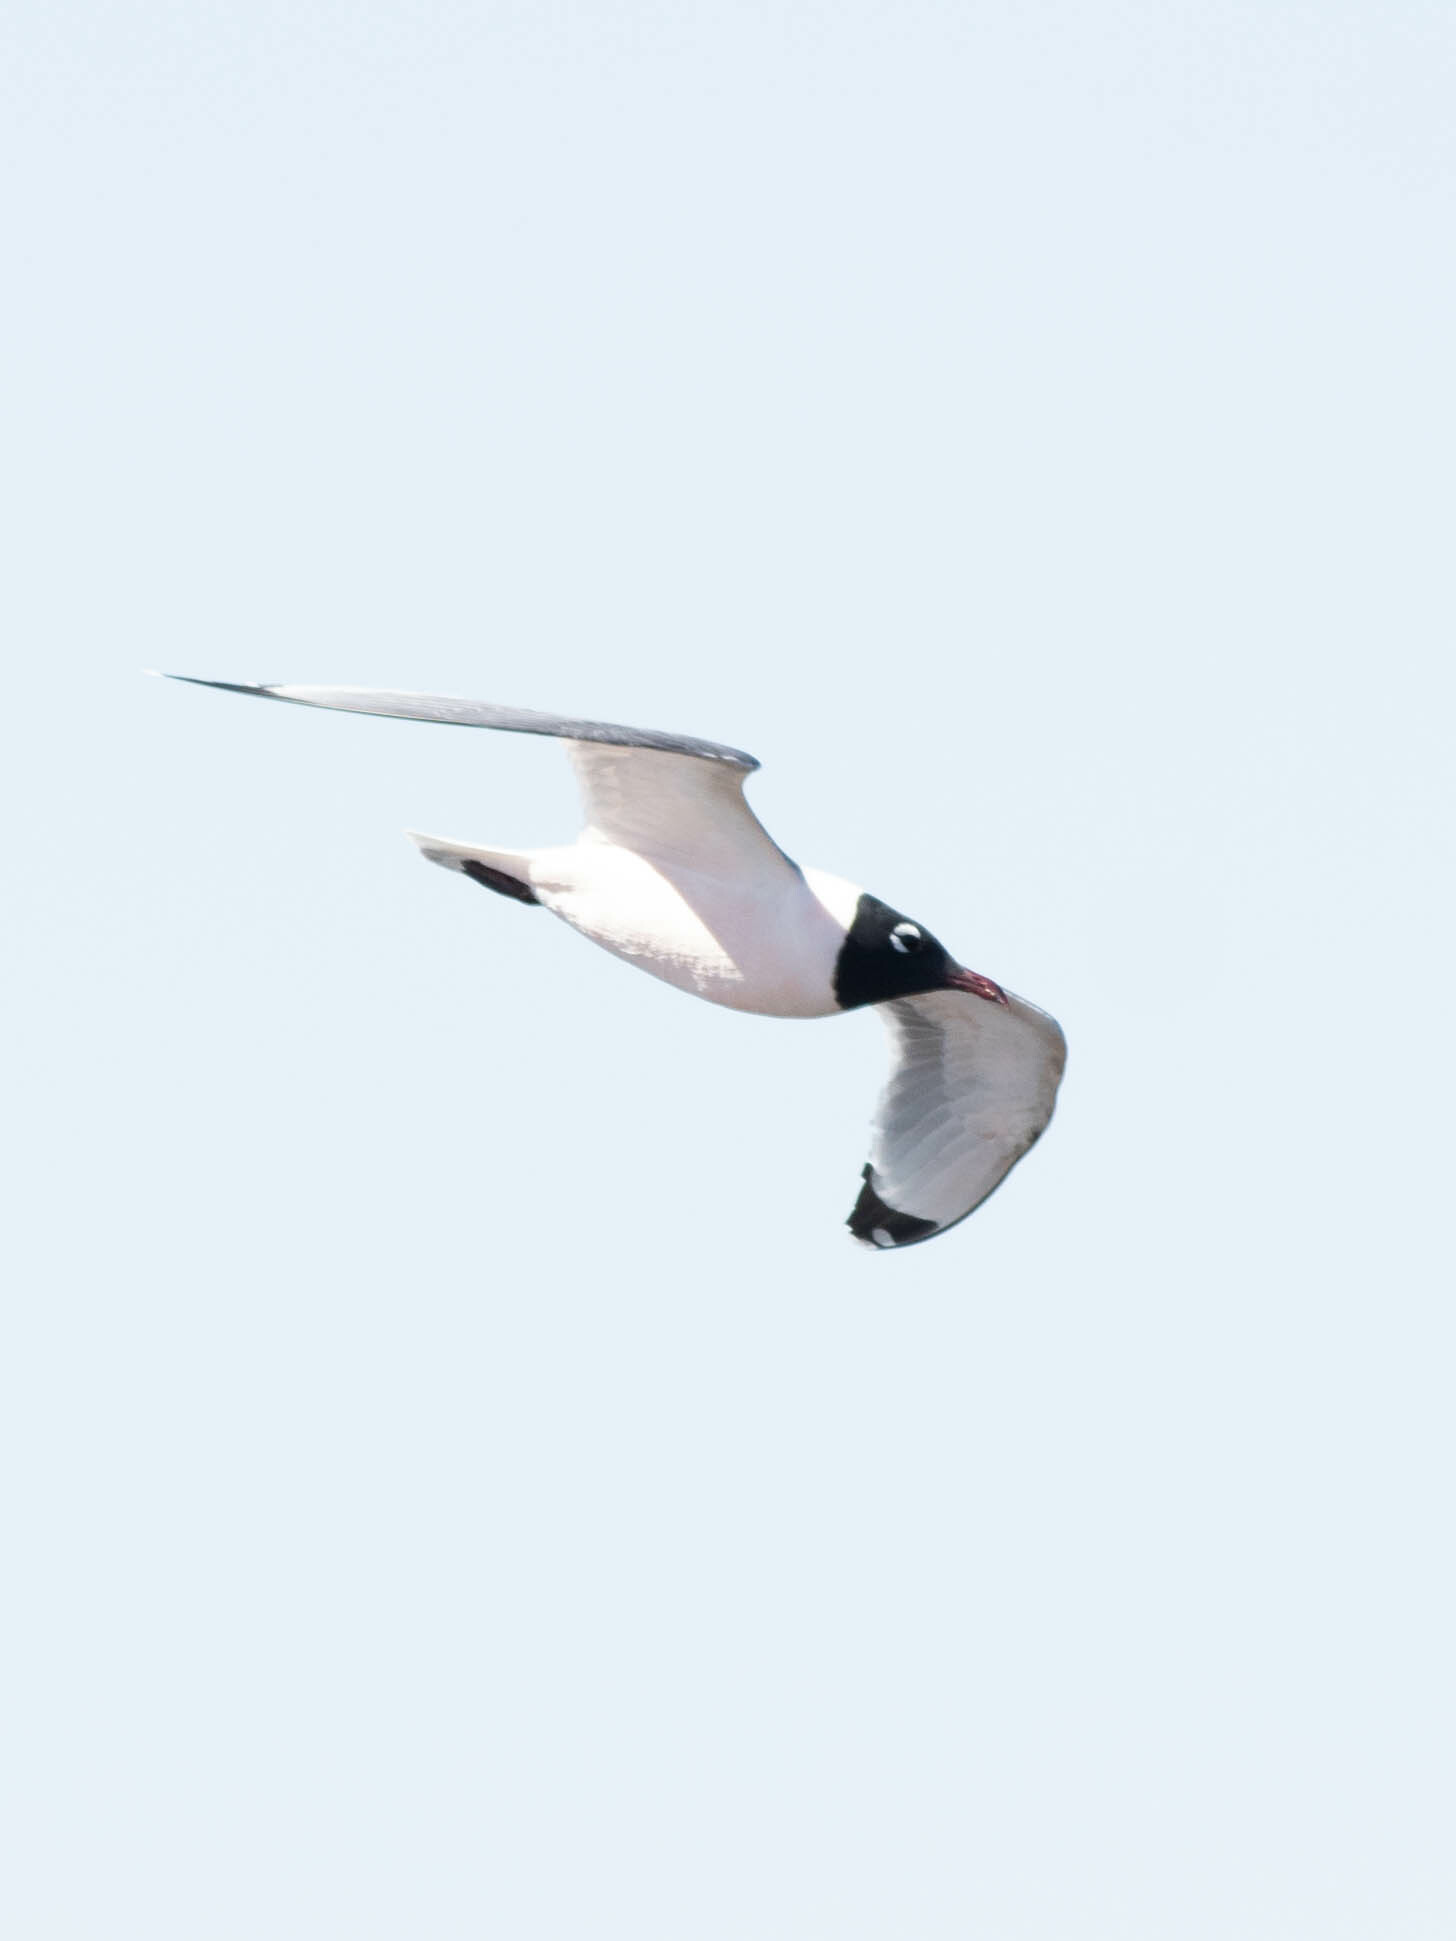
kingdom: Animalia
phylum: Chordata
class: Aves
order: Charadriiformes
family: Laridae
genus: Leucophaeus
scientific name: Leucophaeus pipixcan
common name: Franklin's gull
